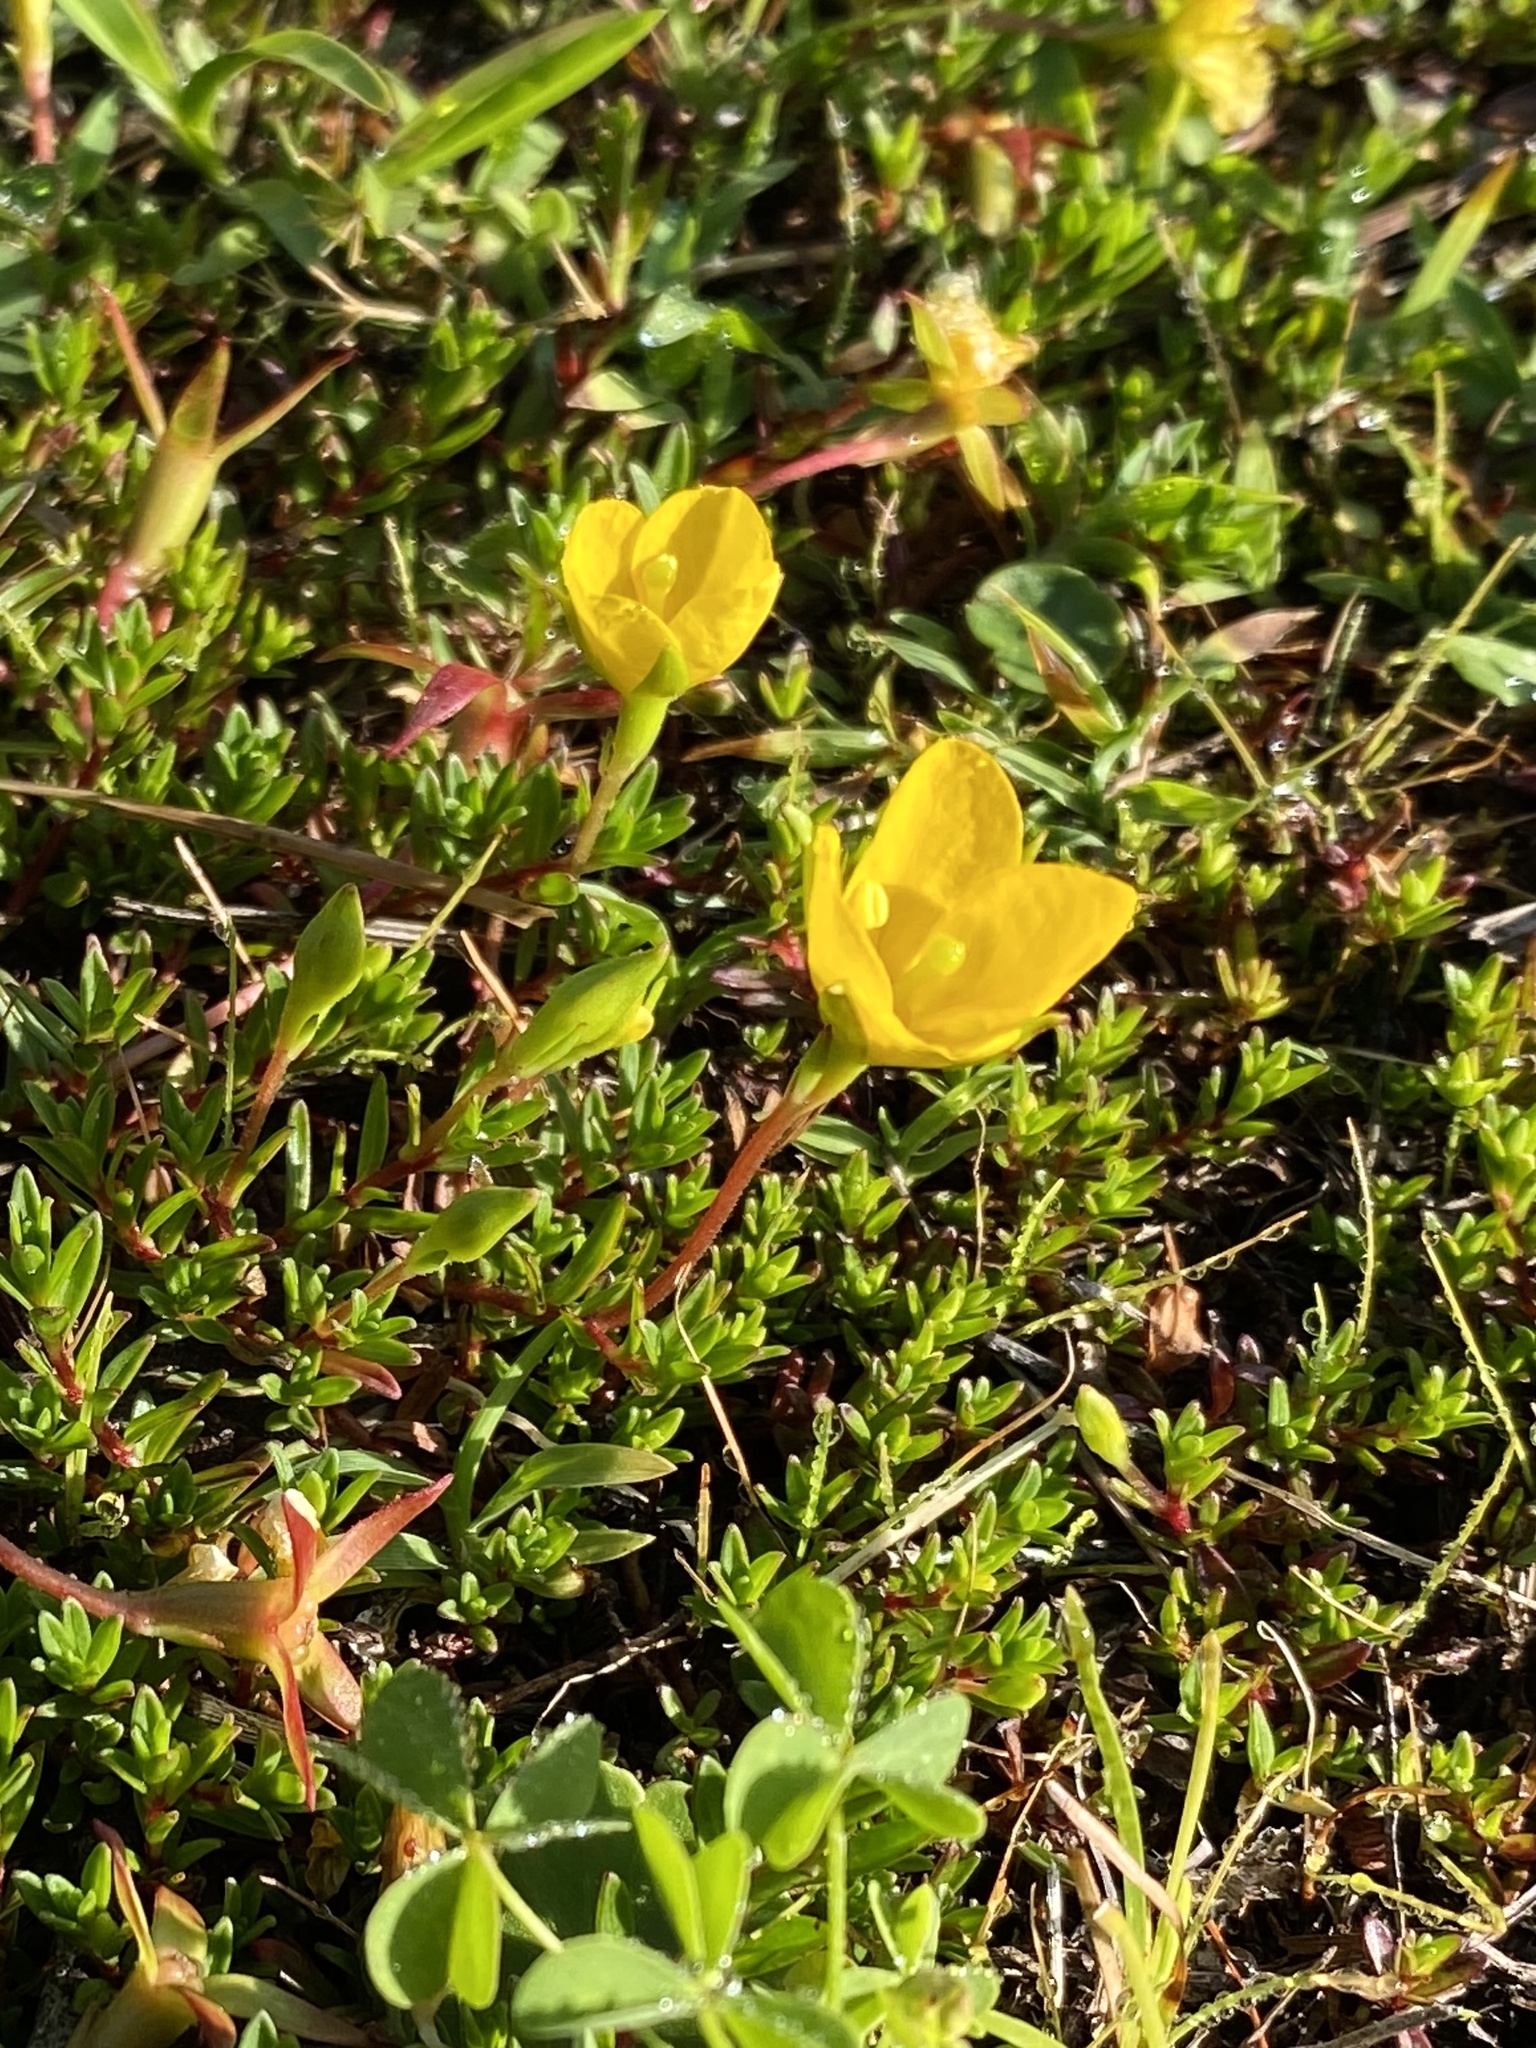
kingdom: Plantae
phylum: Tracheophyta
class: Magnoliopsida
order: Myrtales
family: Onagraceae
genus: Ludwigia
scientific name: Ludwigia arcuata
